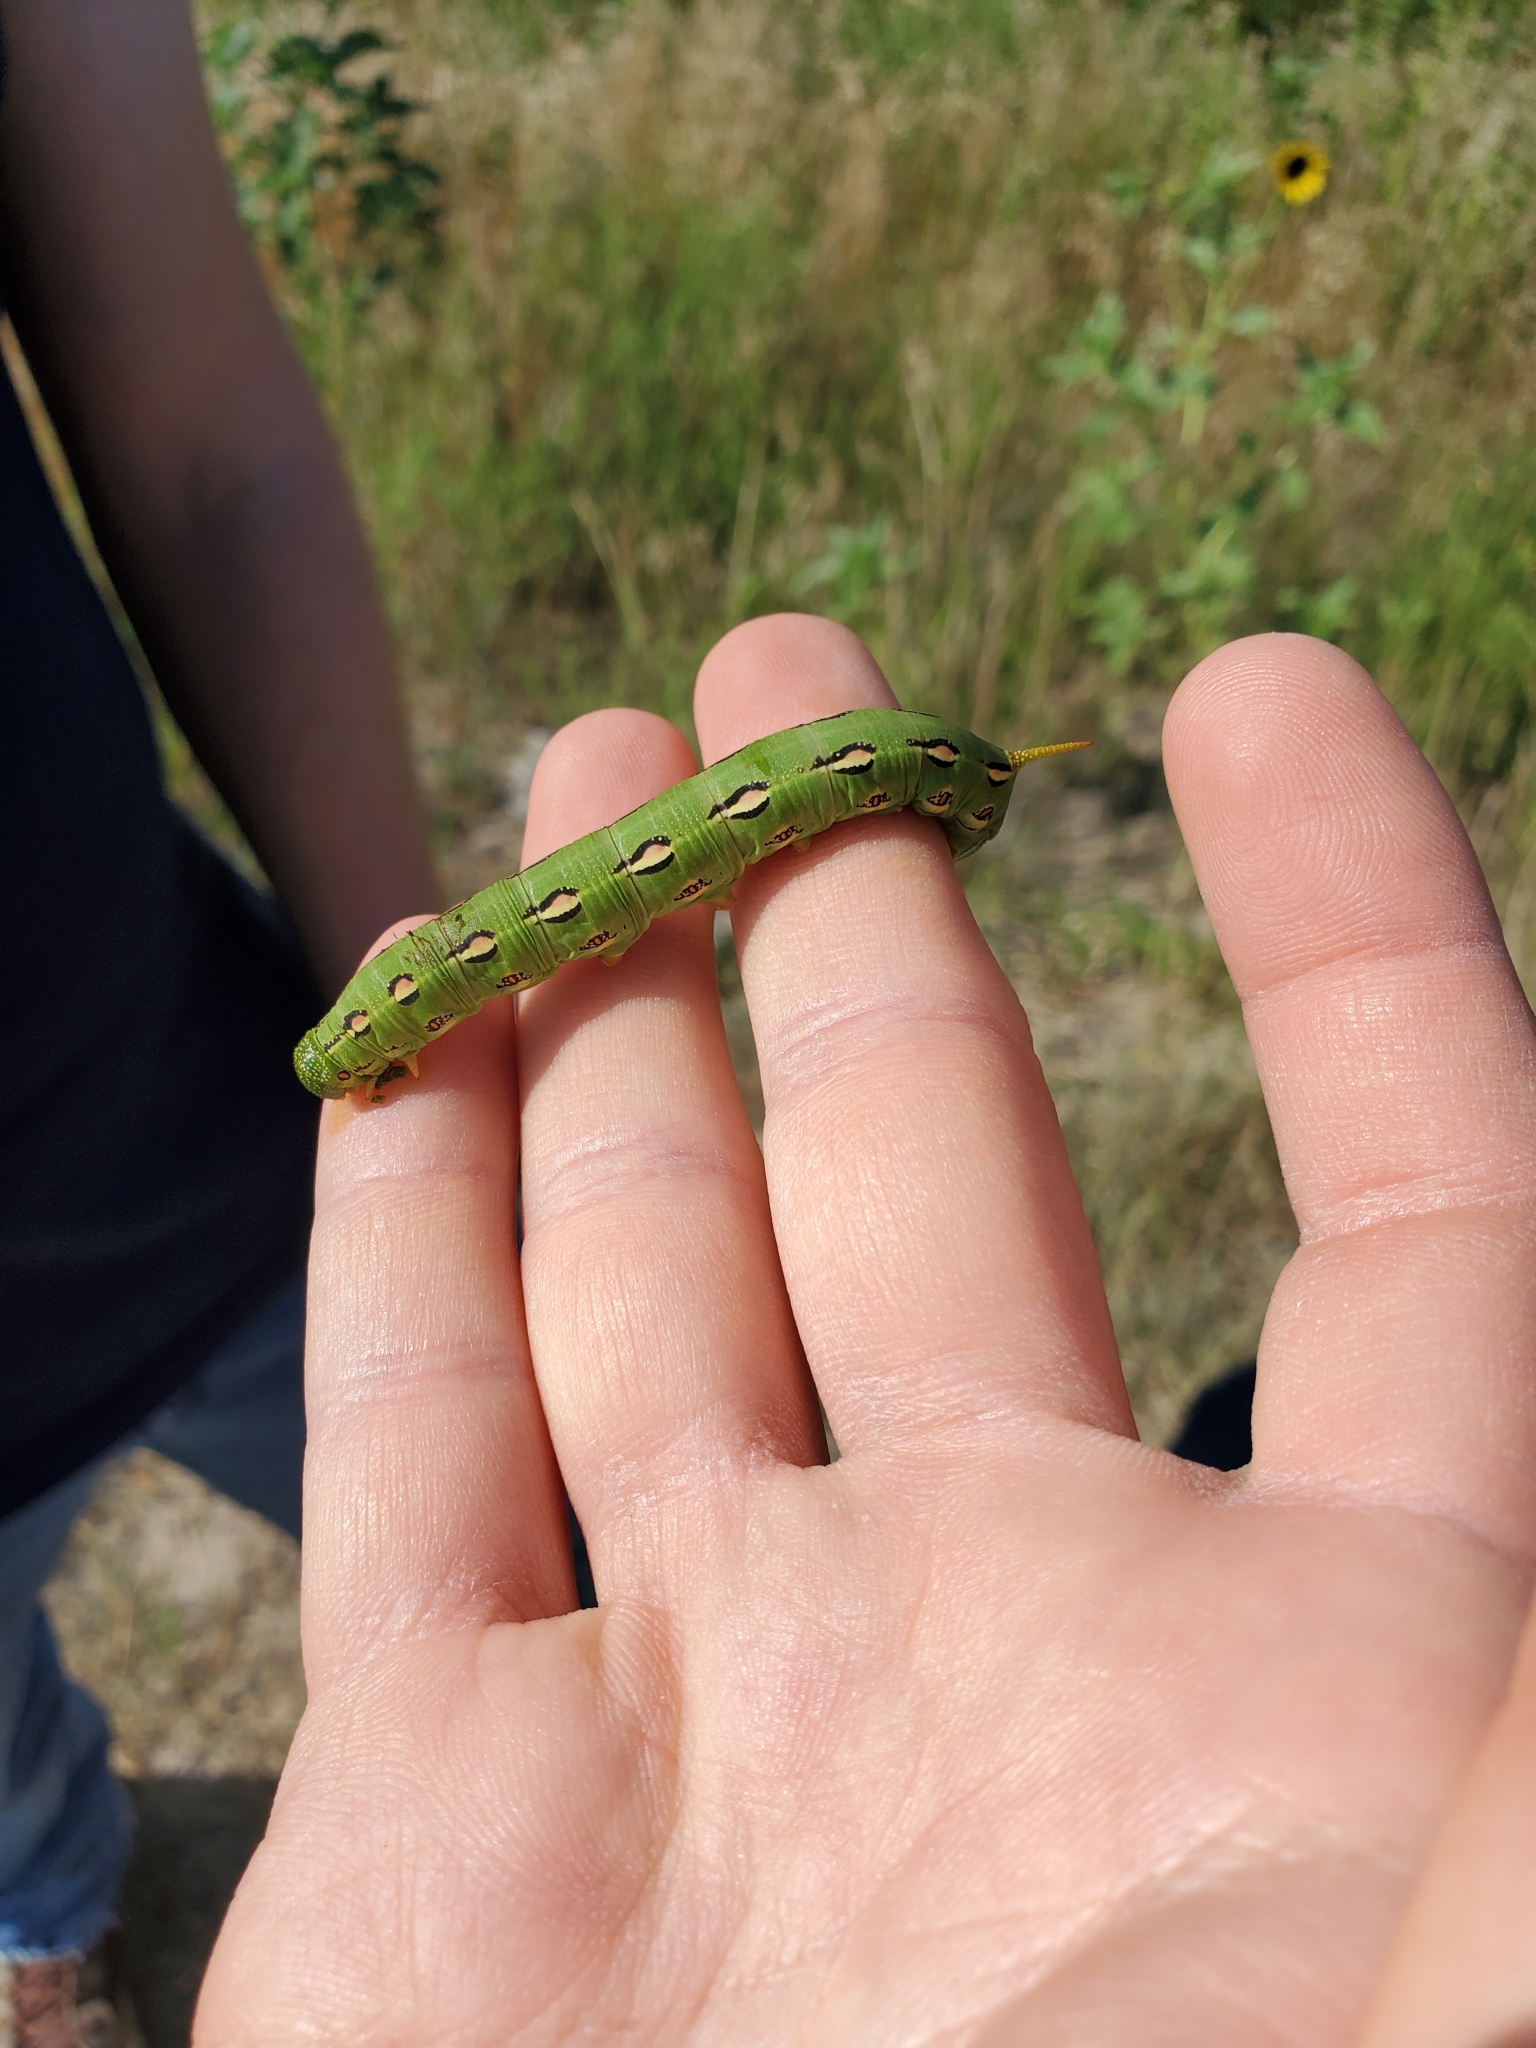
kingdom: Animalia
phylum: Arthropoda
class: Insecta
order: Lepidoptera
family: Sphingidae
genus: Hyles
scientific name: Hyles lineata
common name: White-lined sphinx
